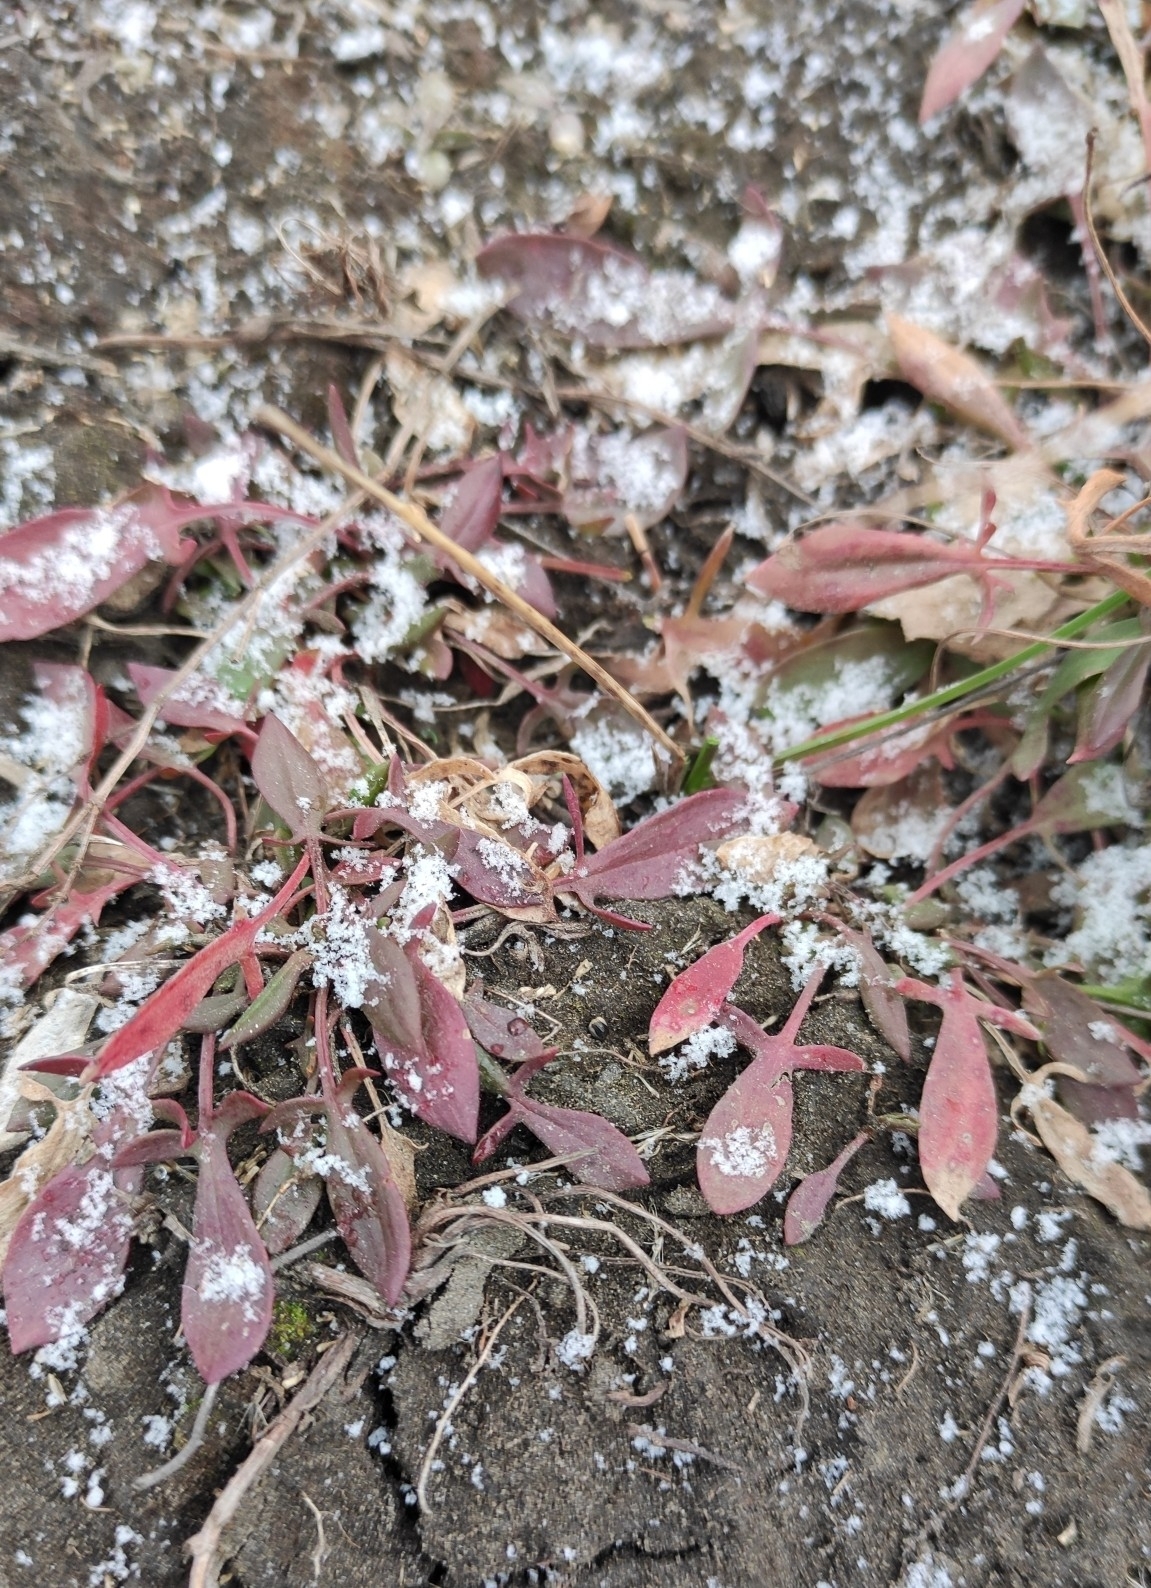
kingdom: Plantae
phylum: Tracheophyta
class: Magnoliopsida
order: Caryophyllales
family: Polygonaceae
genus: Rumex
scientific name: Rumex acetosella
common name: Common sheep sorrel
